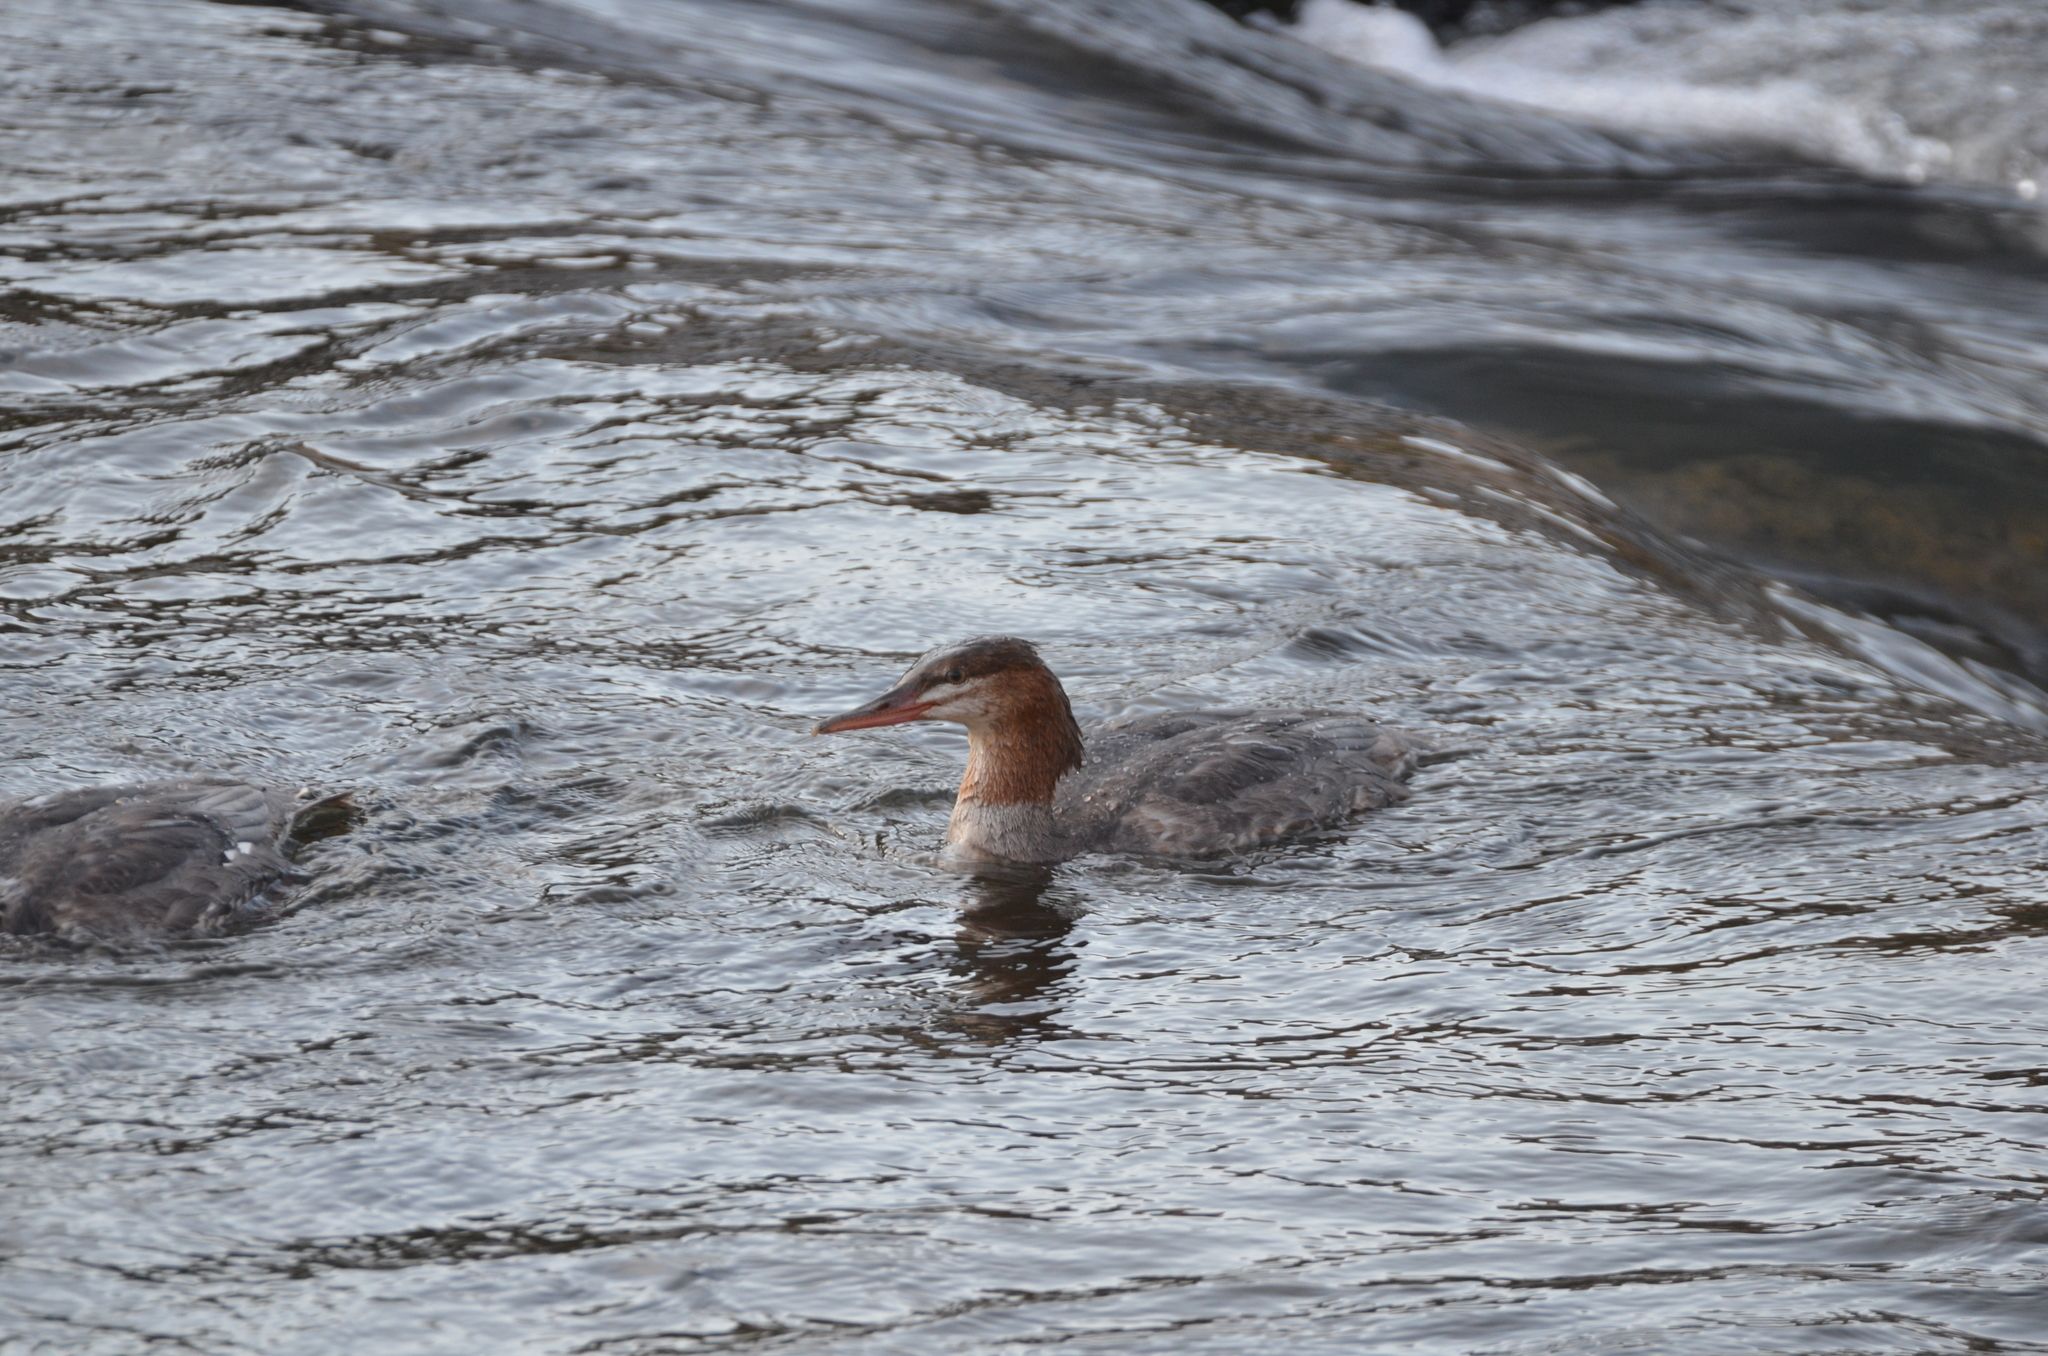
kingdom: Animalia
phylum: Chordata
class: Aves
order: Anseriformes
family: Anatidae
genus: Mergus
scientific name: Mergus merganser
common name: Common merganser
